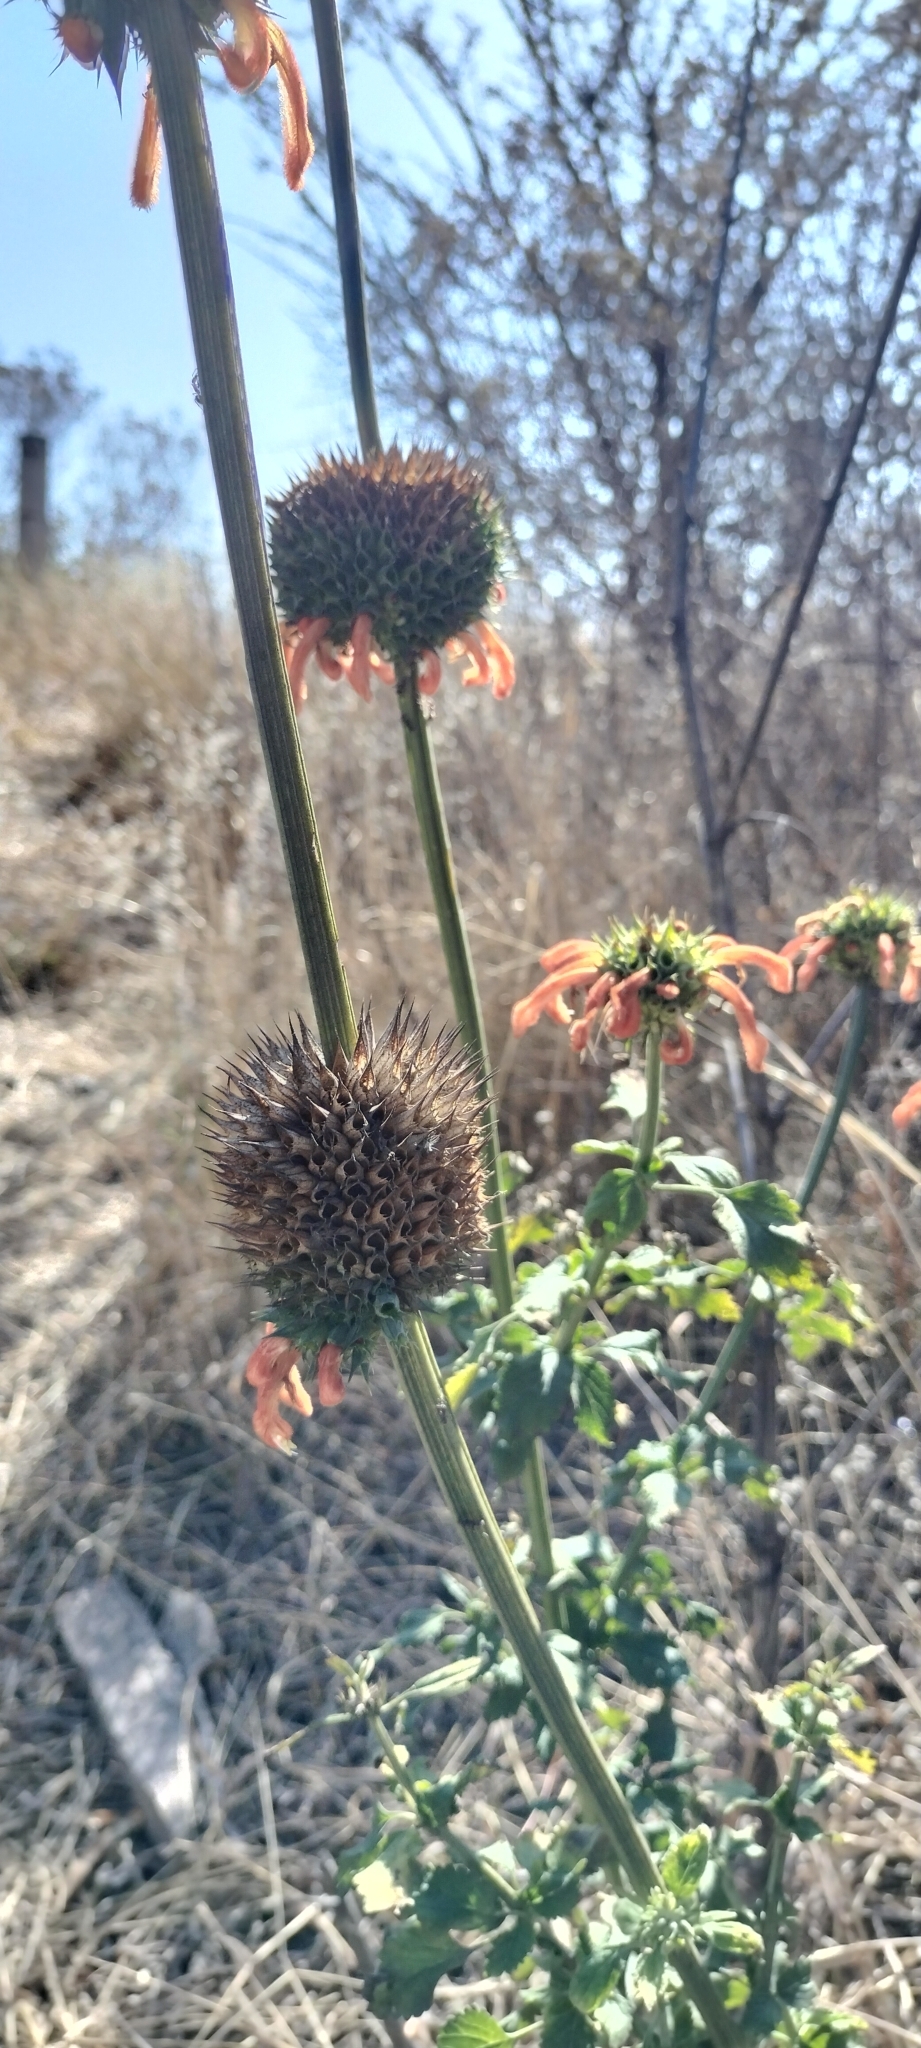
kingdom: Plantae
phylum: Tracheophyta
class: Magnoliopsida
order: Lamiales
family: Lamiaceae
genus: Leonotis
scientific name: Leonotis nepetifolia
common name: Christmas candlestick
